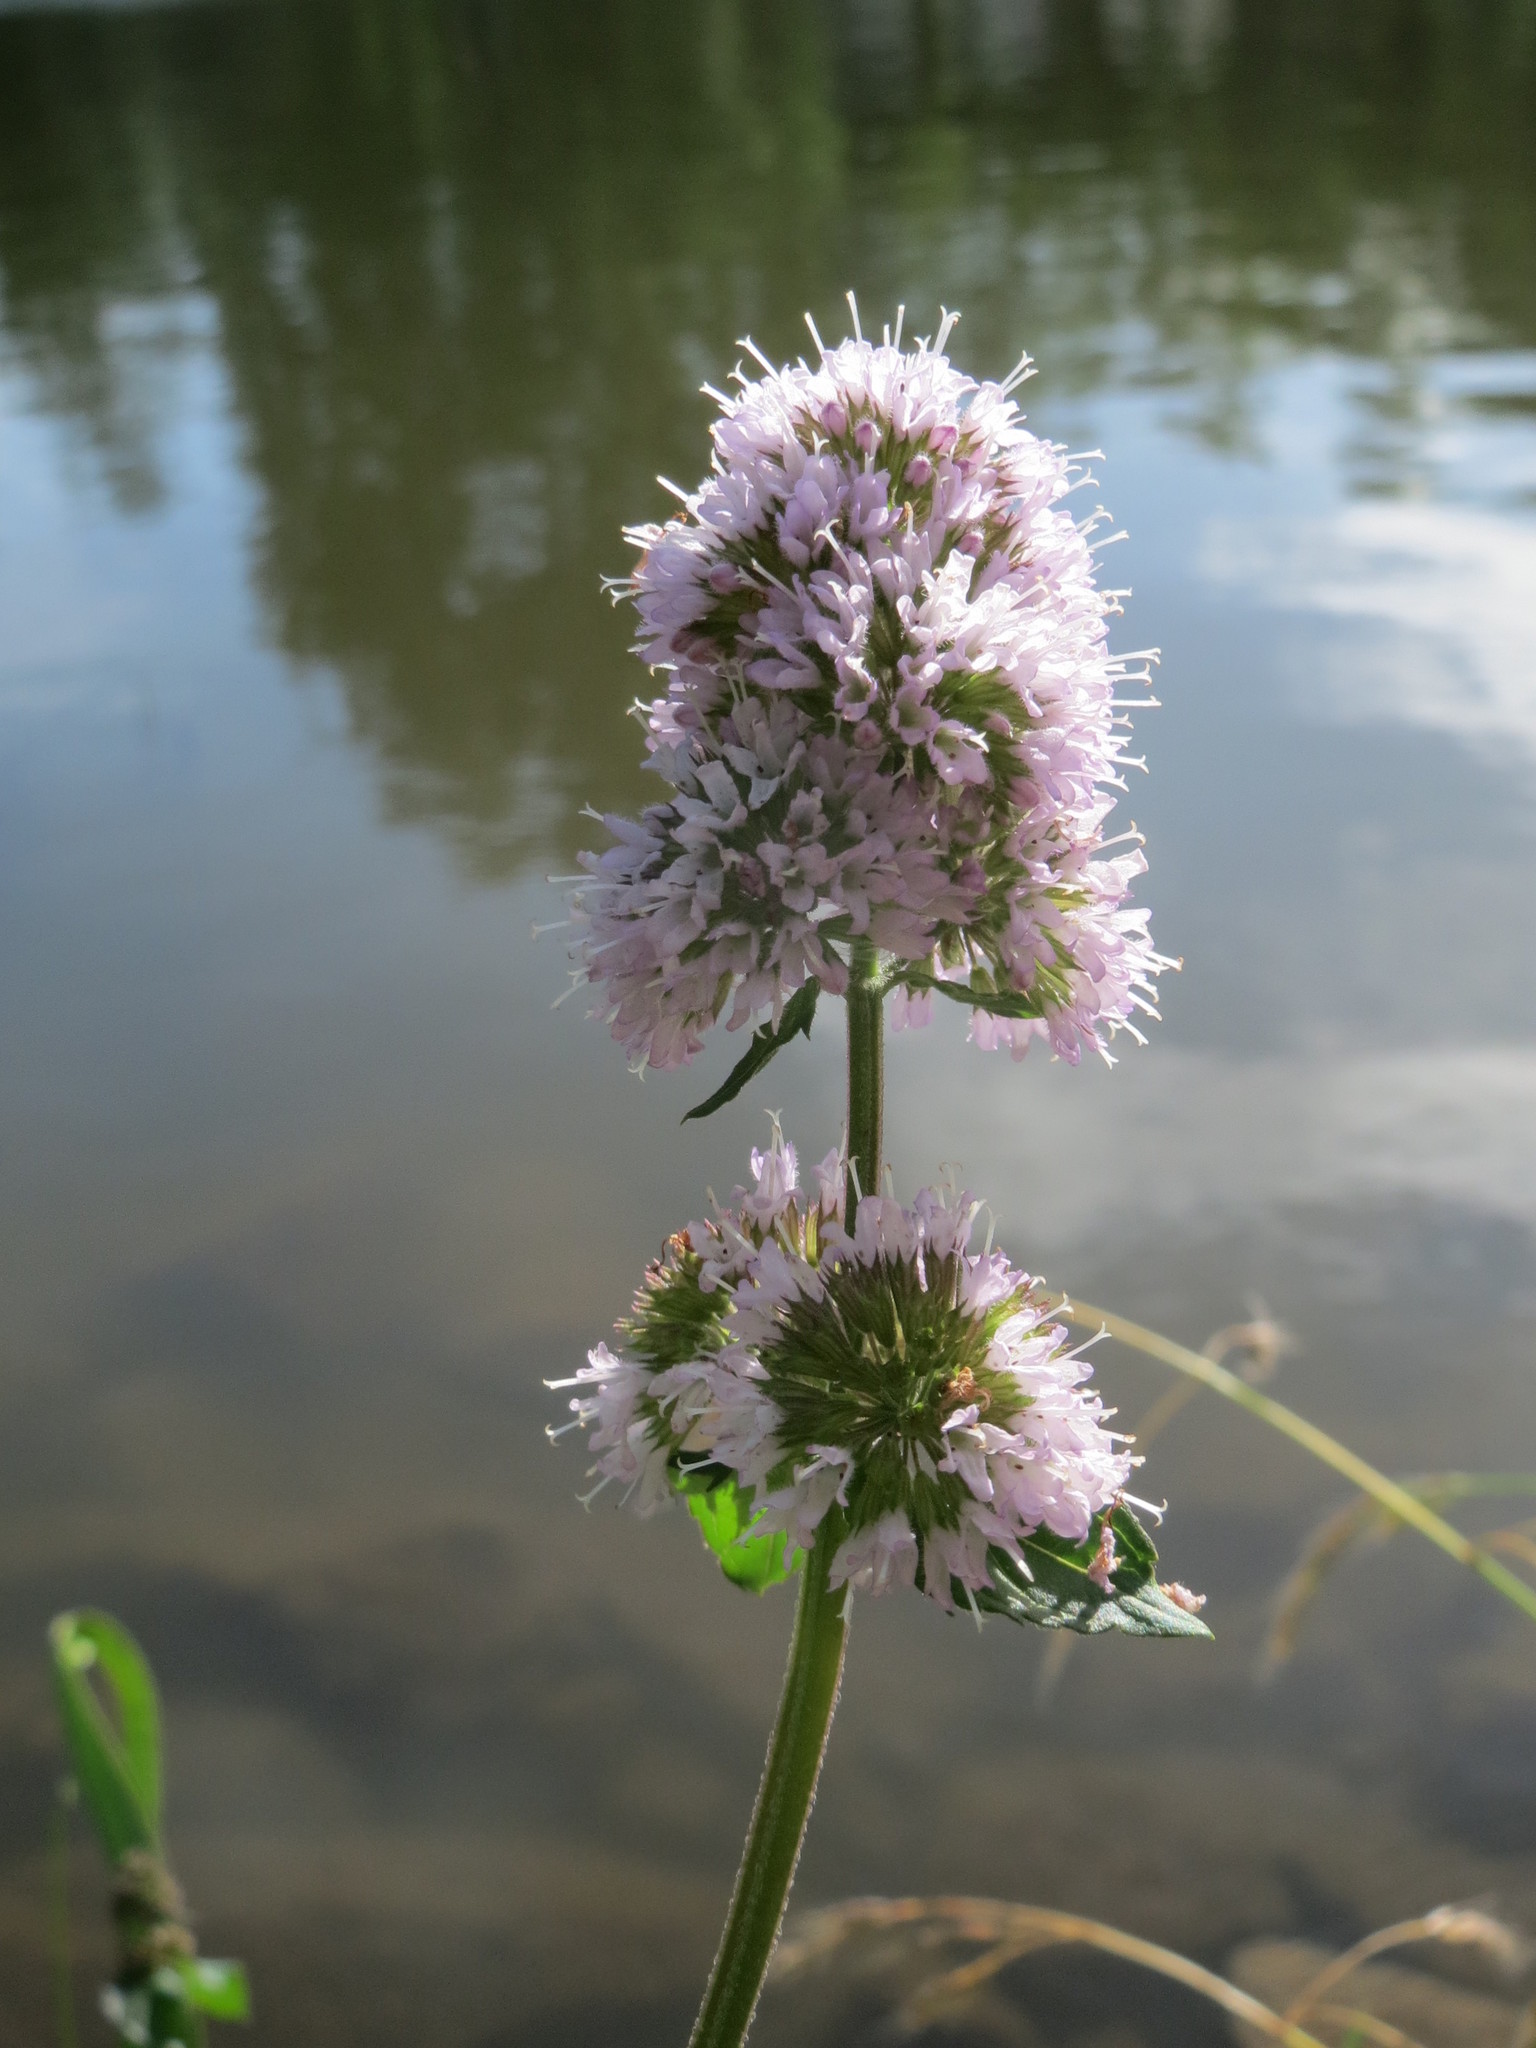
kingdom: Plantae
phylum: Tracheophyta
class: Magnoliopsida
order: Lamiales
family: Lamiaceae
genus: Mentha
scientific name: Mentha aquatica
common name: Water mint
